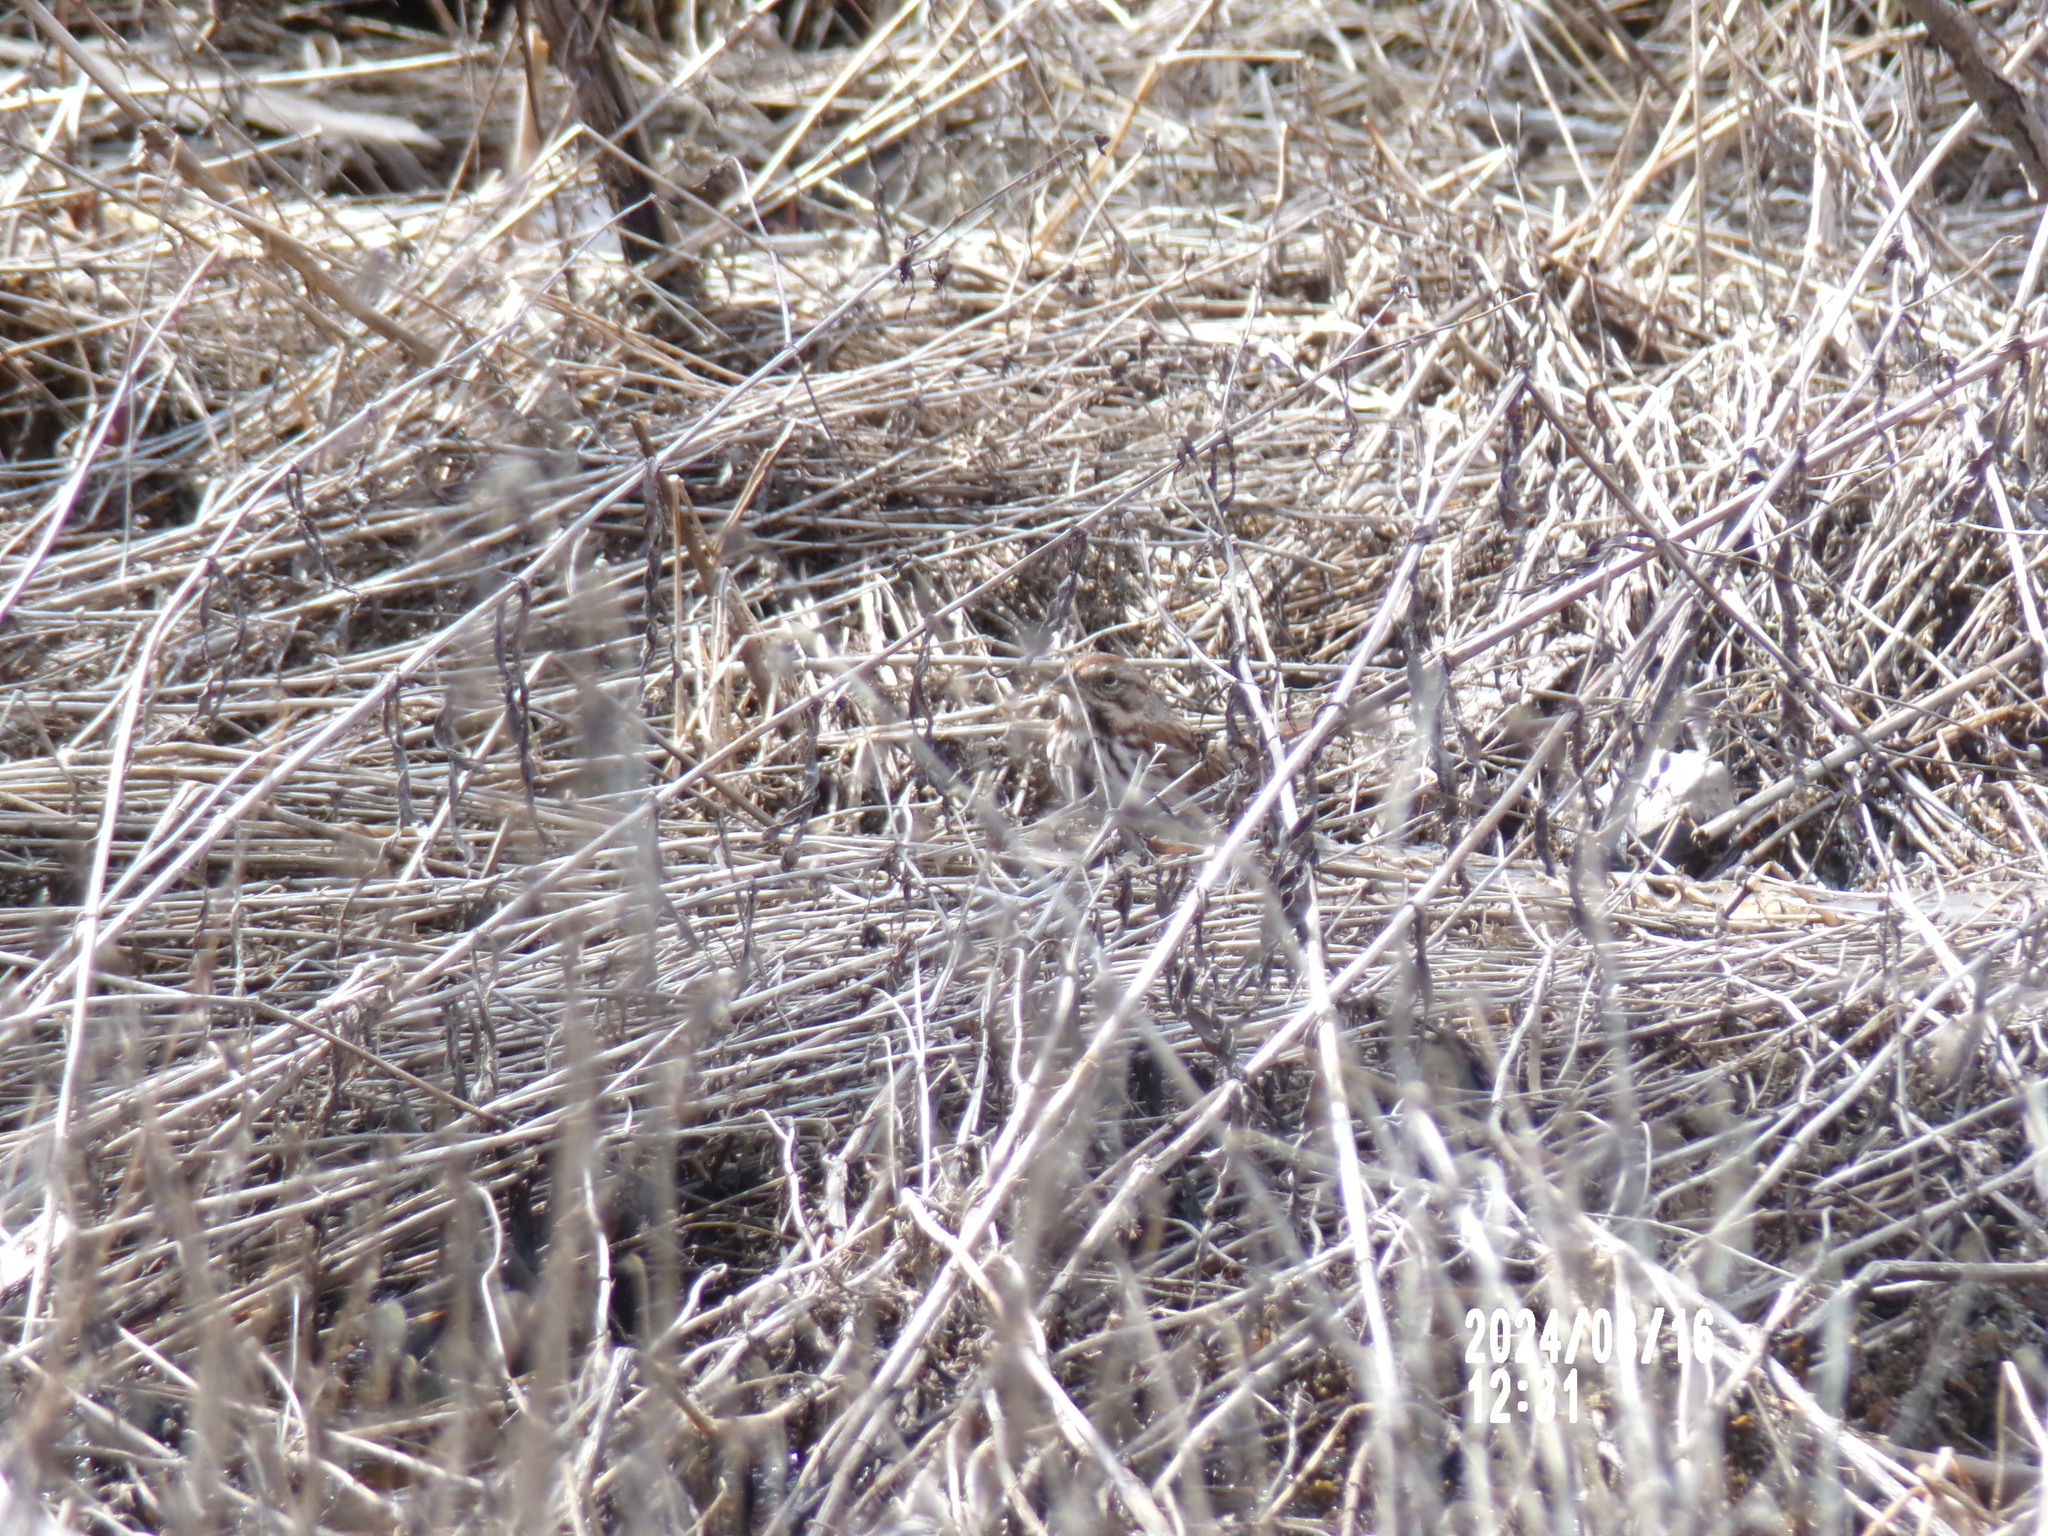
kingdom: Animalia
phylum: Chordata
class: Aves
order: Passeriformes
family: Passerellidae
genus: Melospiza
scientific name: Melospiza melodia
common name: Song sparrow
